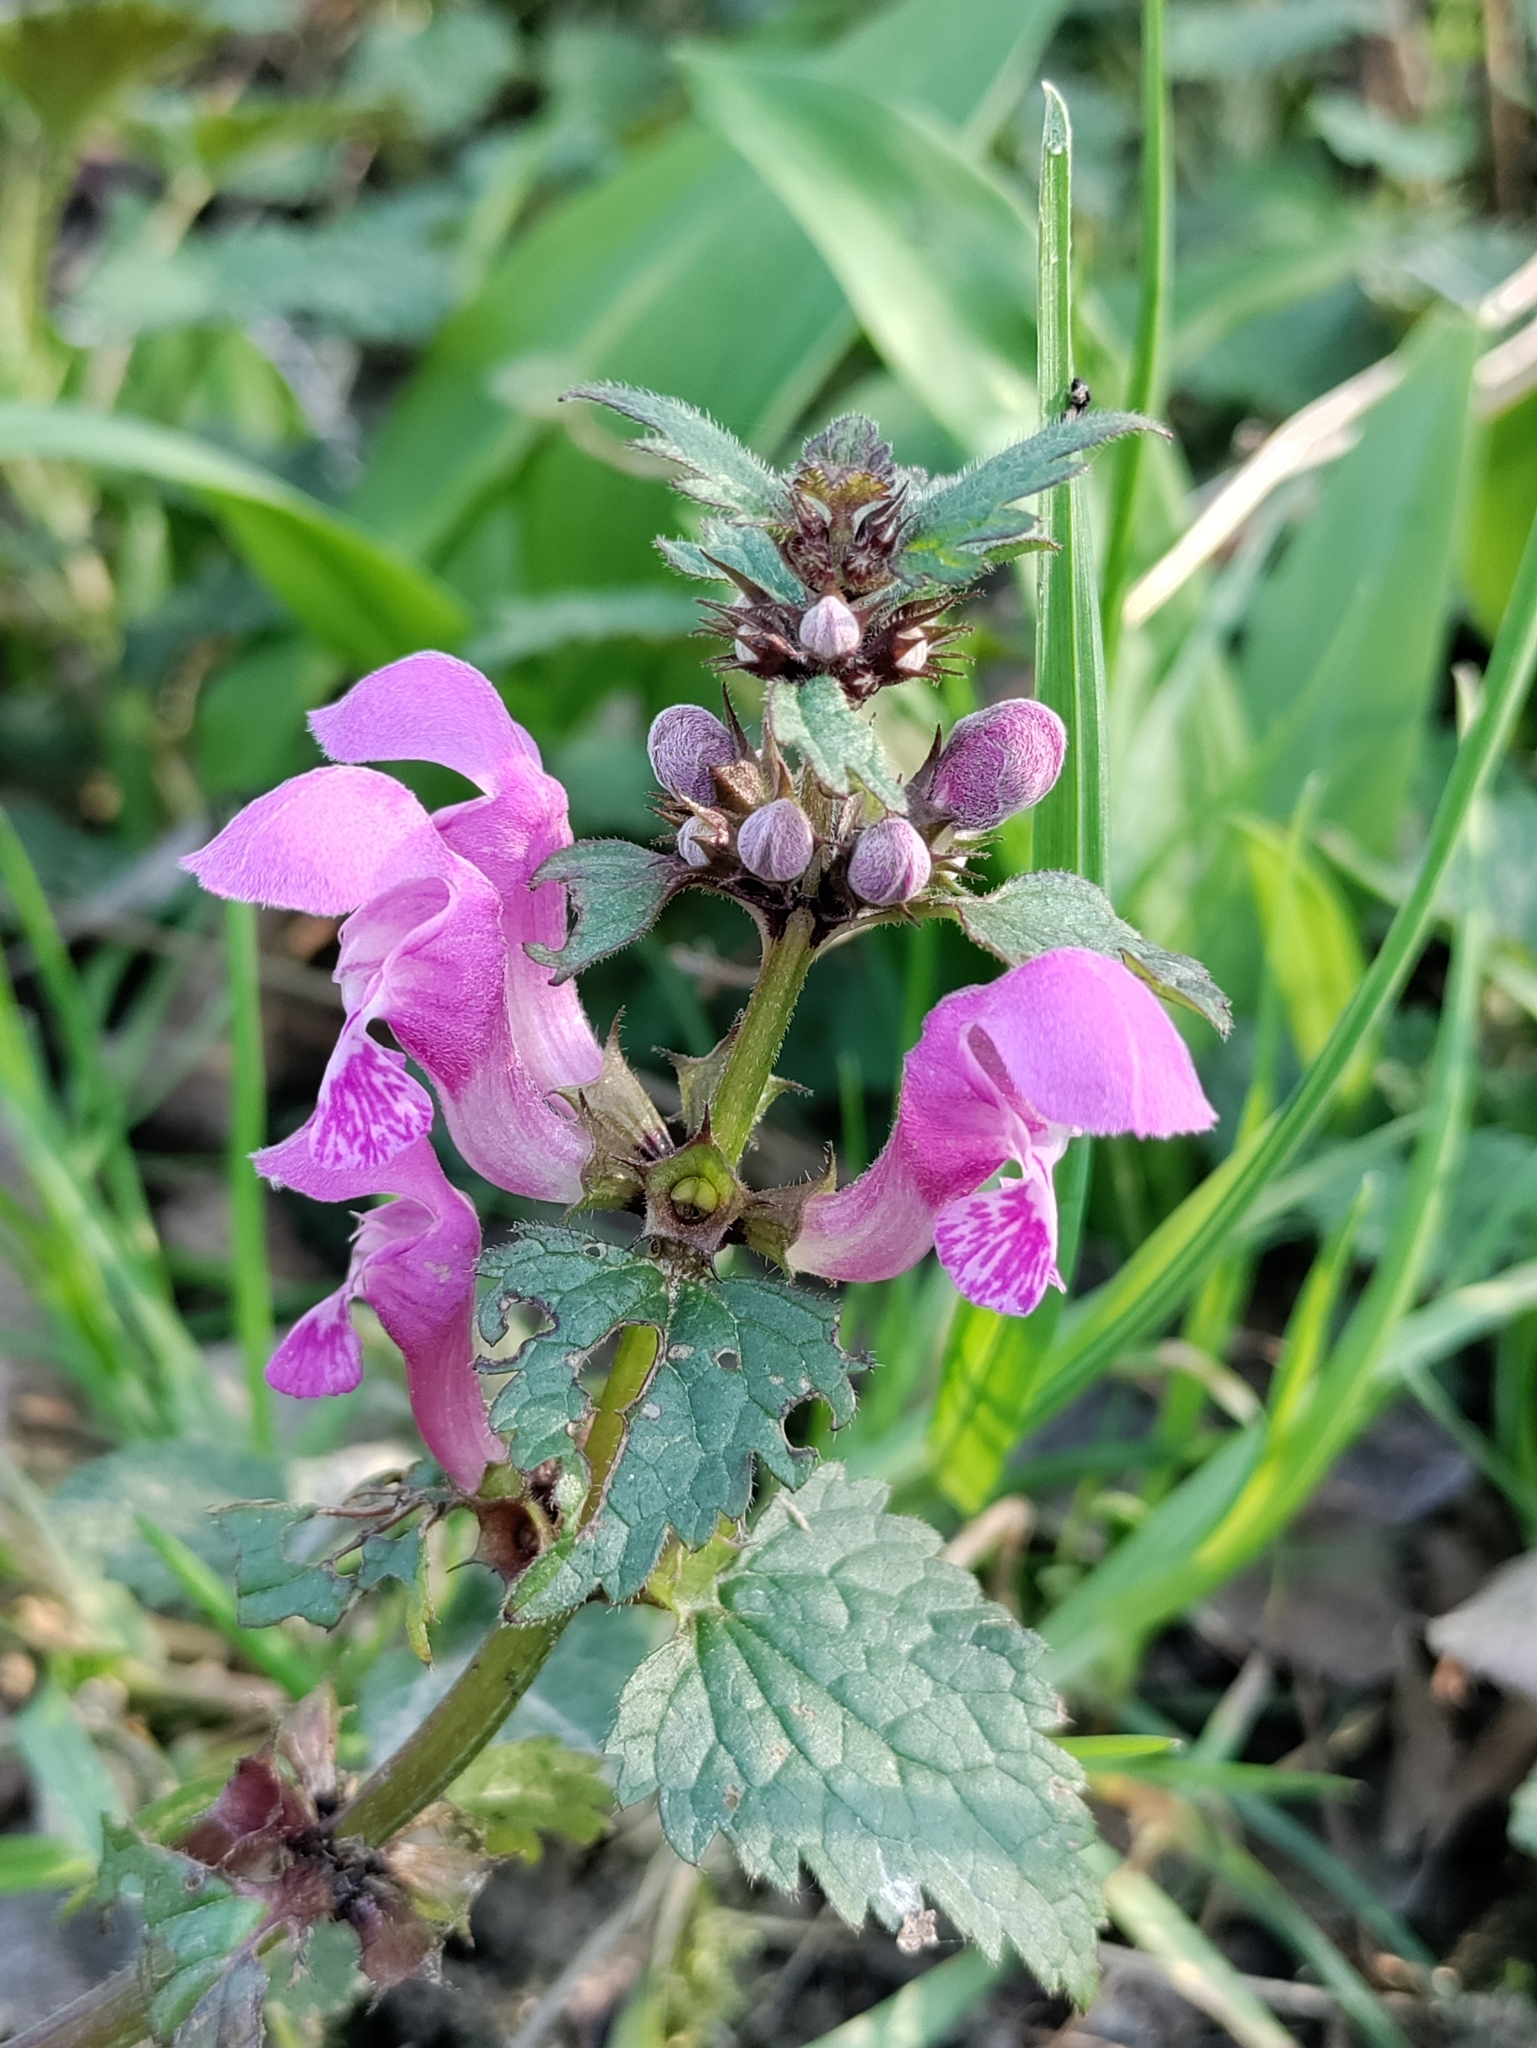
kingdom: Plantae
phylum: Tracheophyta
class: Magnoliopsida
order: Lamiales
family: Lamiaceae
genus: Lamium
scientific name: Lamium maculatum
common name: Spotted dead-nettle
